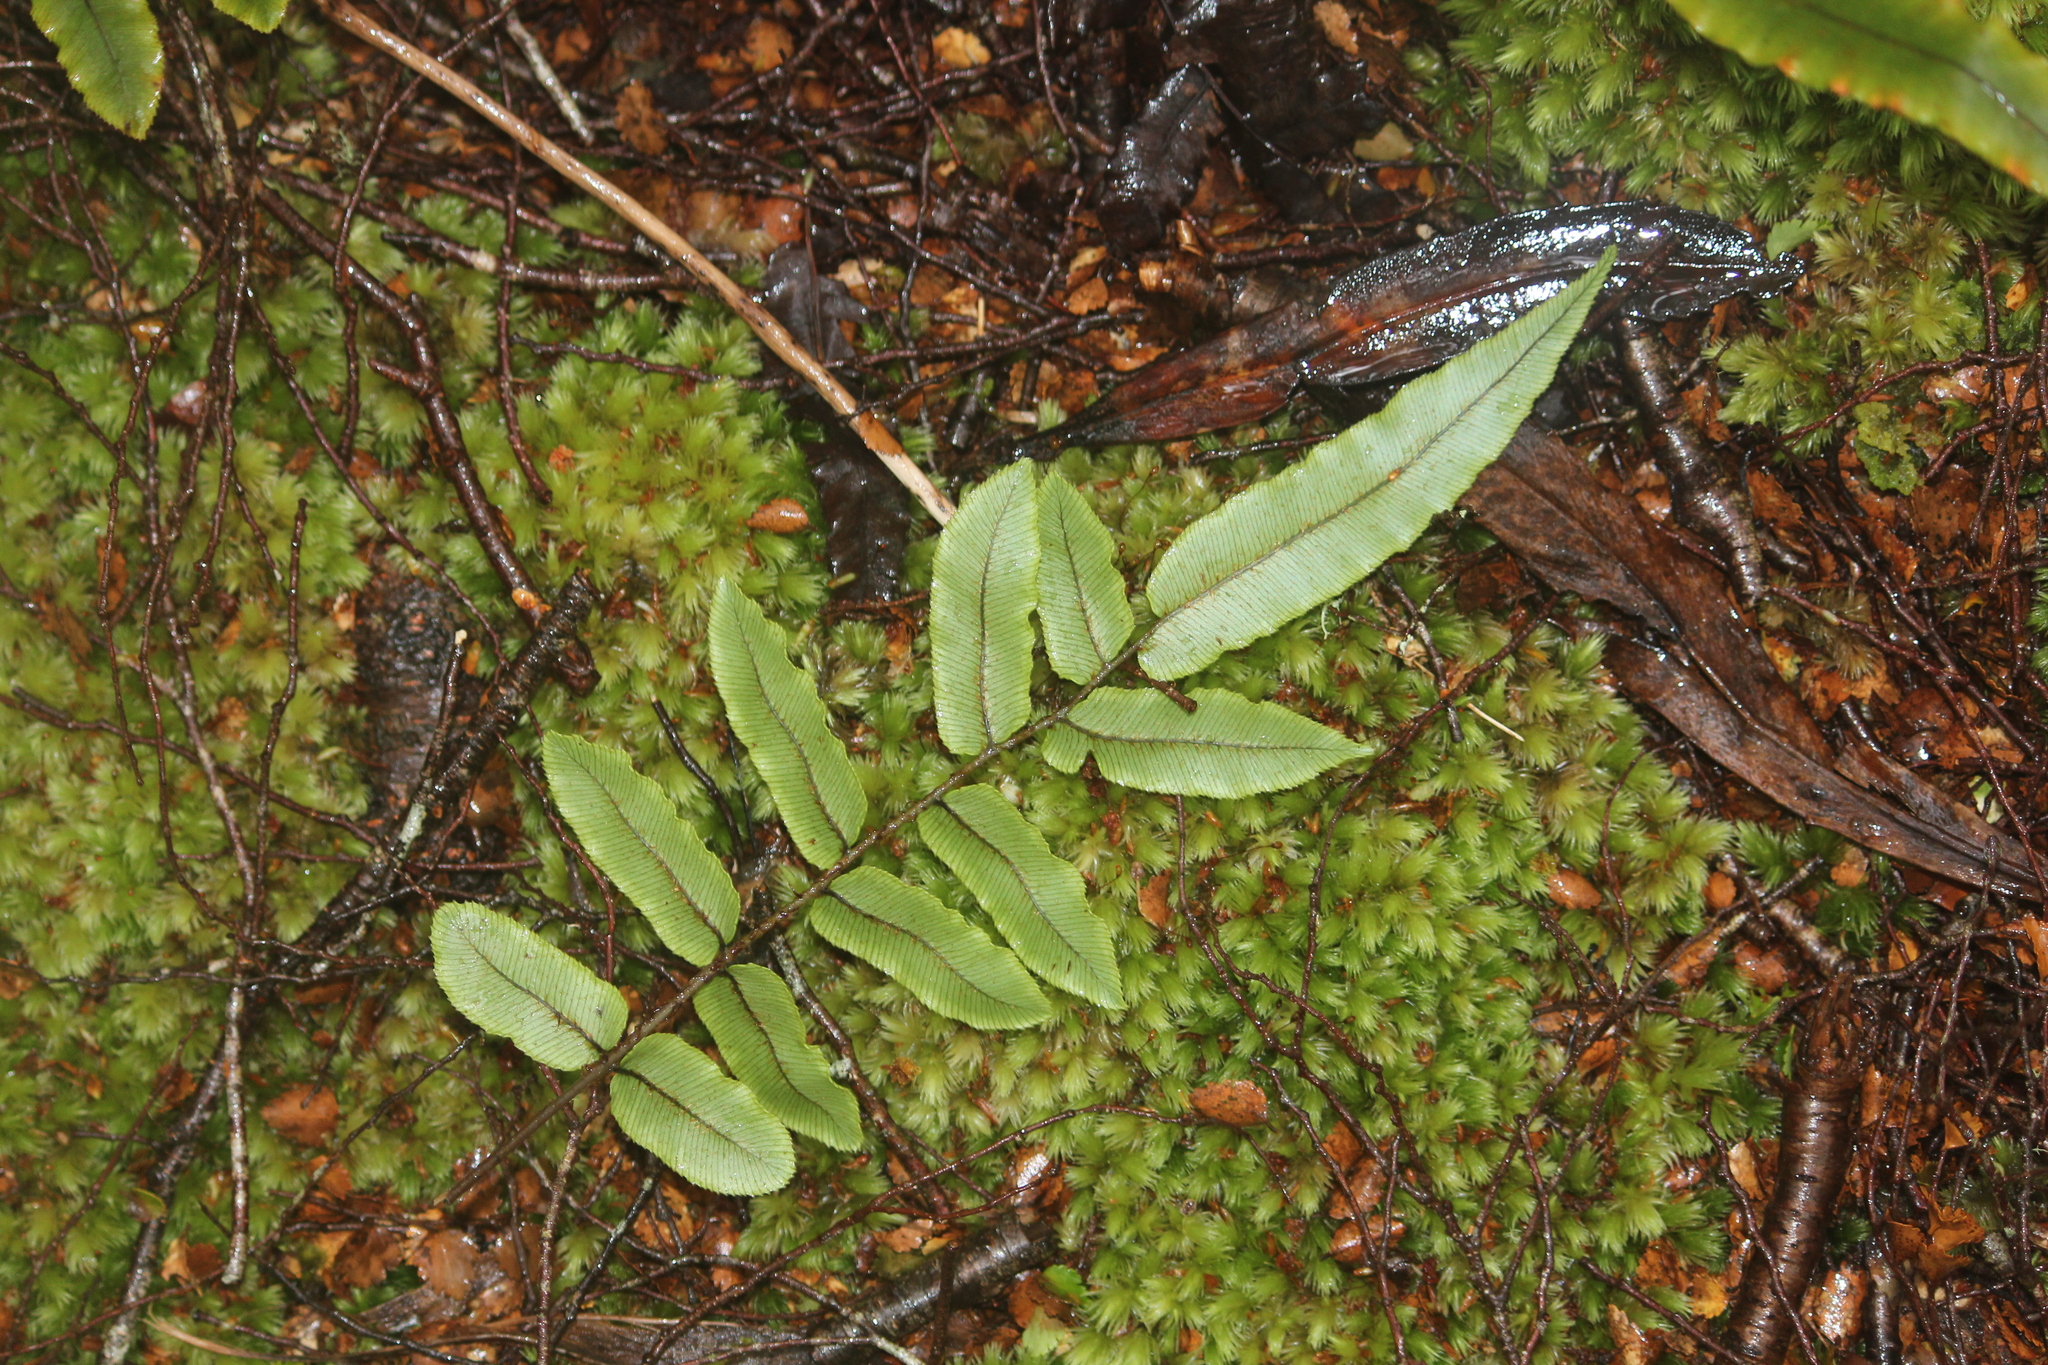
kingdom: Plantae
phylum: Tracheophyta
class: Polypodiopsida
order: Polypodiales
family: Blechnaceae
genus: Parablechnum
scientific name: Parablechnum procerum
